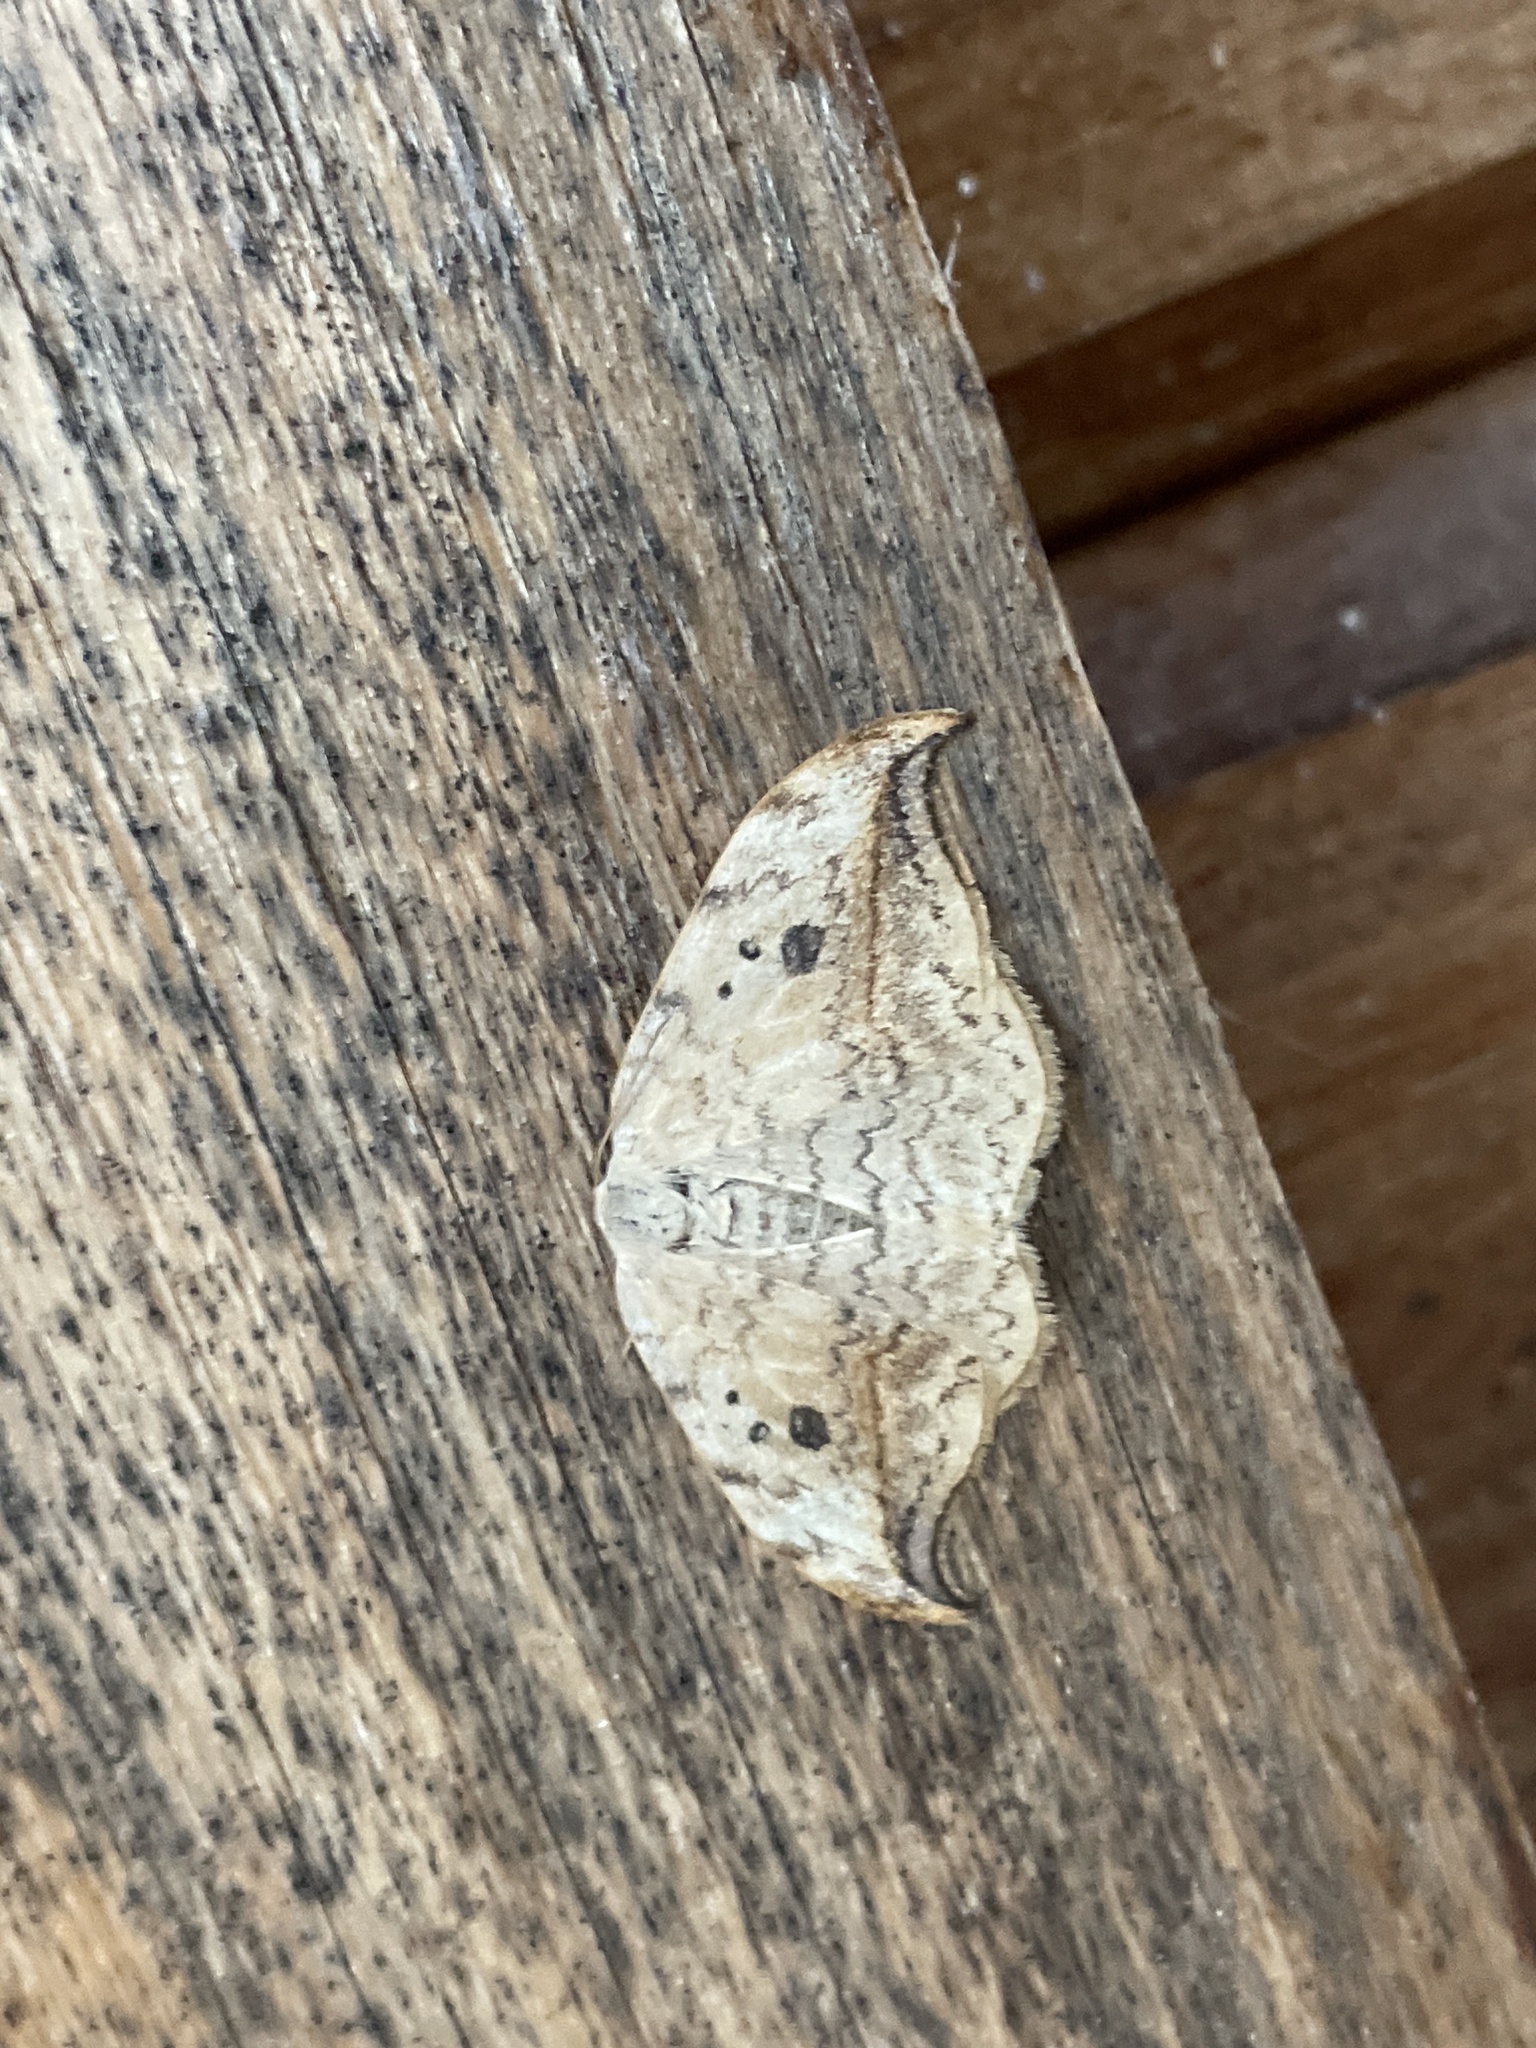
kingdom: Animalia
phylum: Arthropoda
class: Insecta
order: Lepidoptera
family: Drepanidae
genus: Drepana
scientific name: Drepana falcataria
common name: Pebble hook-tip
